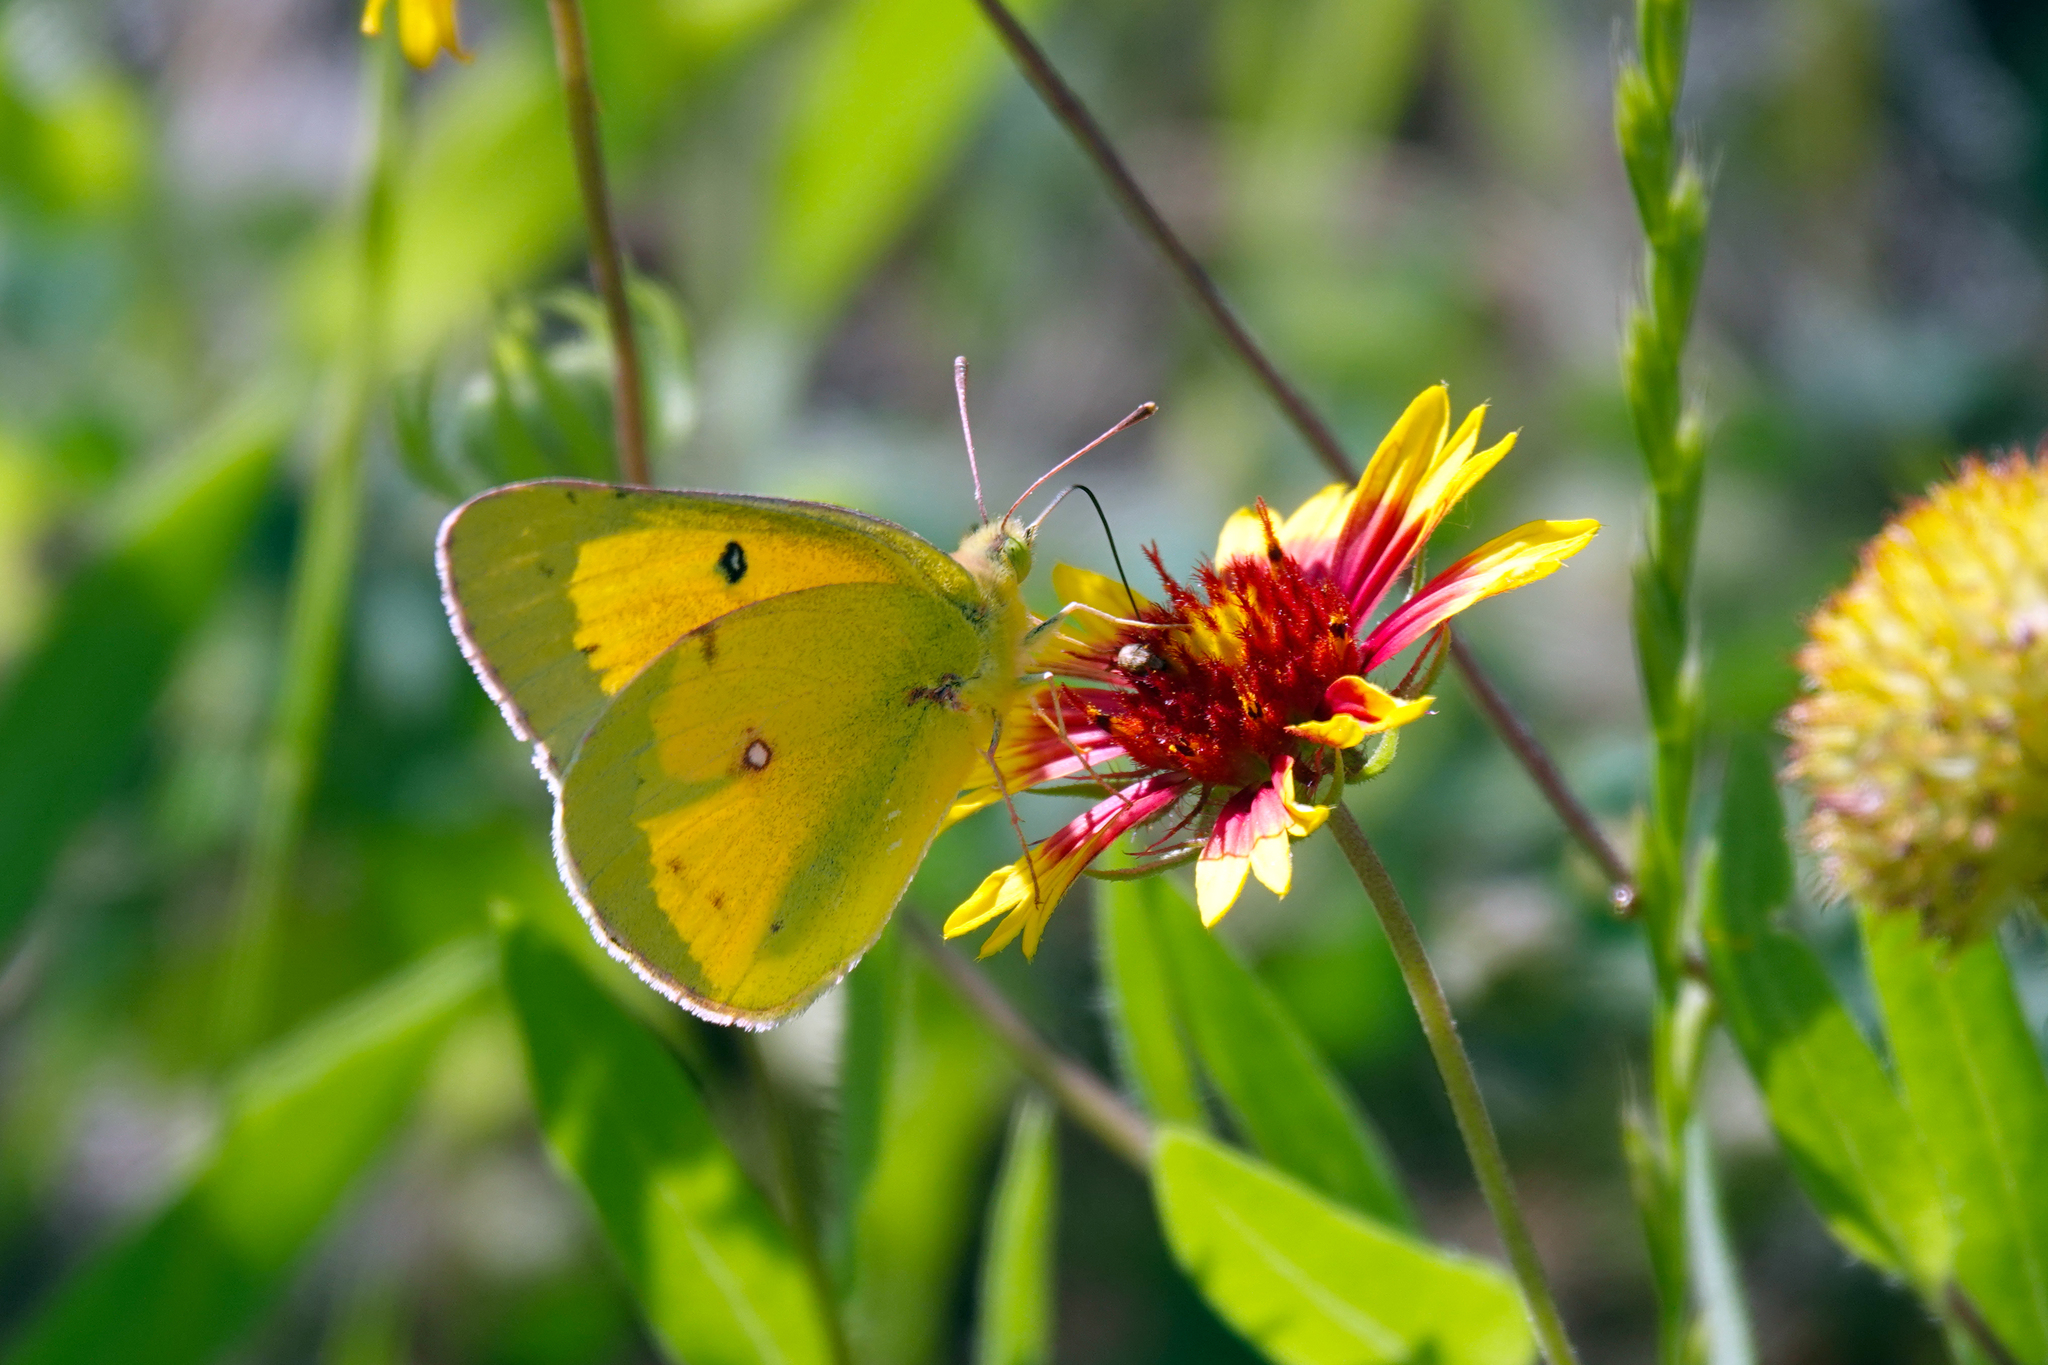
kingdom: Animalia
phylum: Arthropoda
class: Insecta
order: Lepidoptera
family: Pieridae
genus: Colias
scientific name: Colias eurytheme
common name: Alfalfa butterfly
